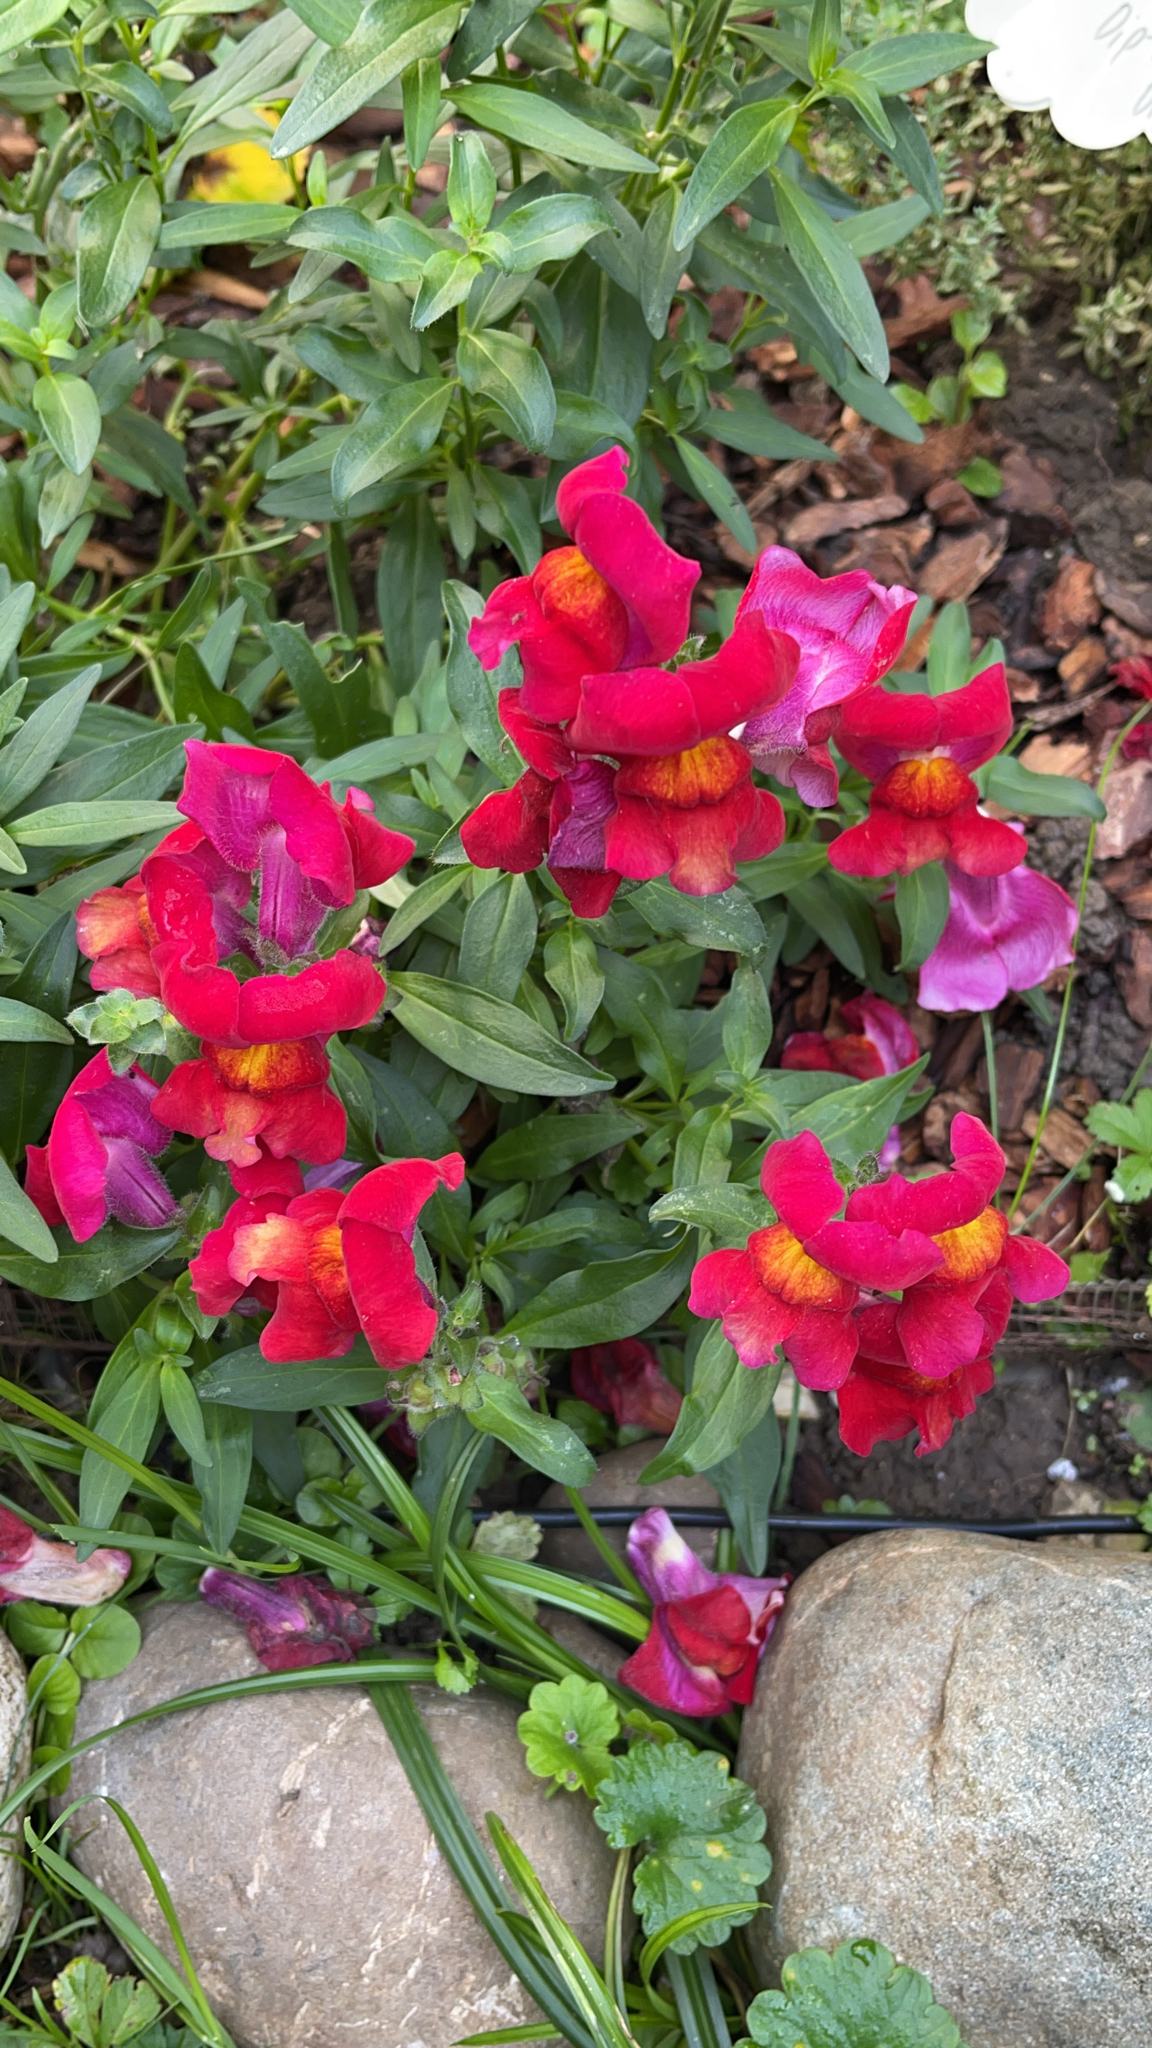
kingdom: Plantae
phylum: Tracheophyta
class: Magnoliopsida
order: Lamiales
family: Plantaginaceae
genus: Antirrhinum
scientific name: Antirrhinum majus
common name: Snapdragon
